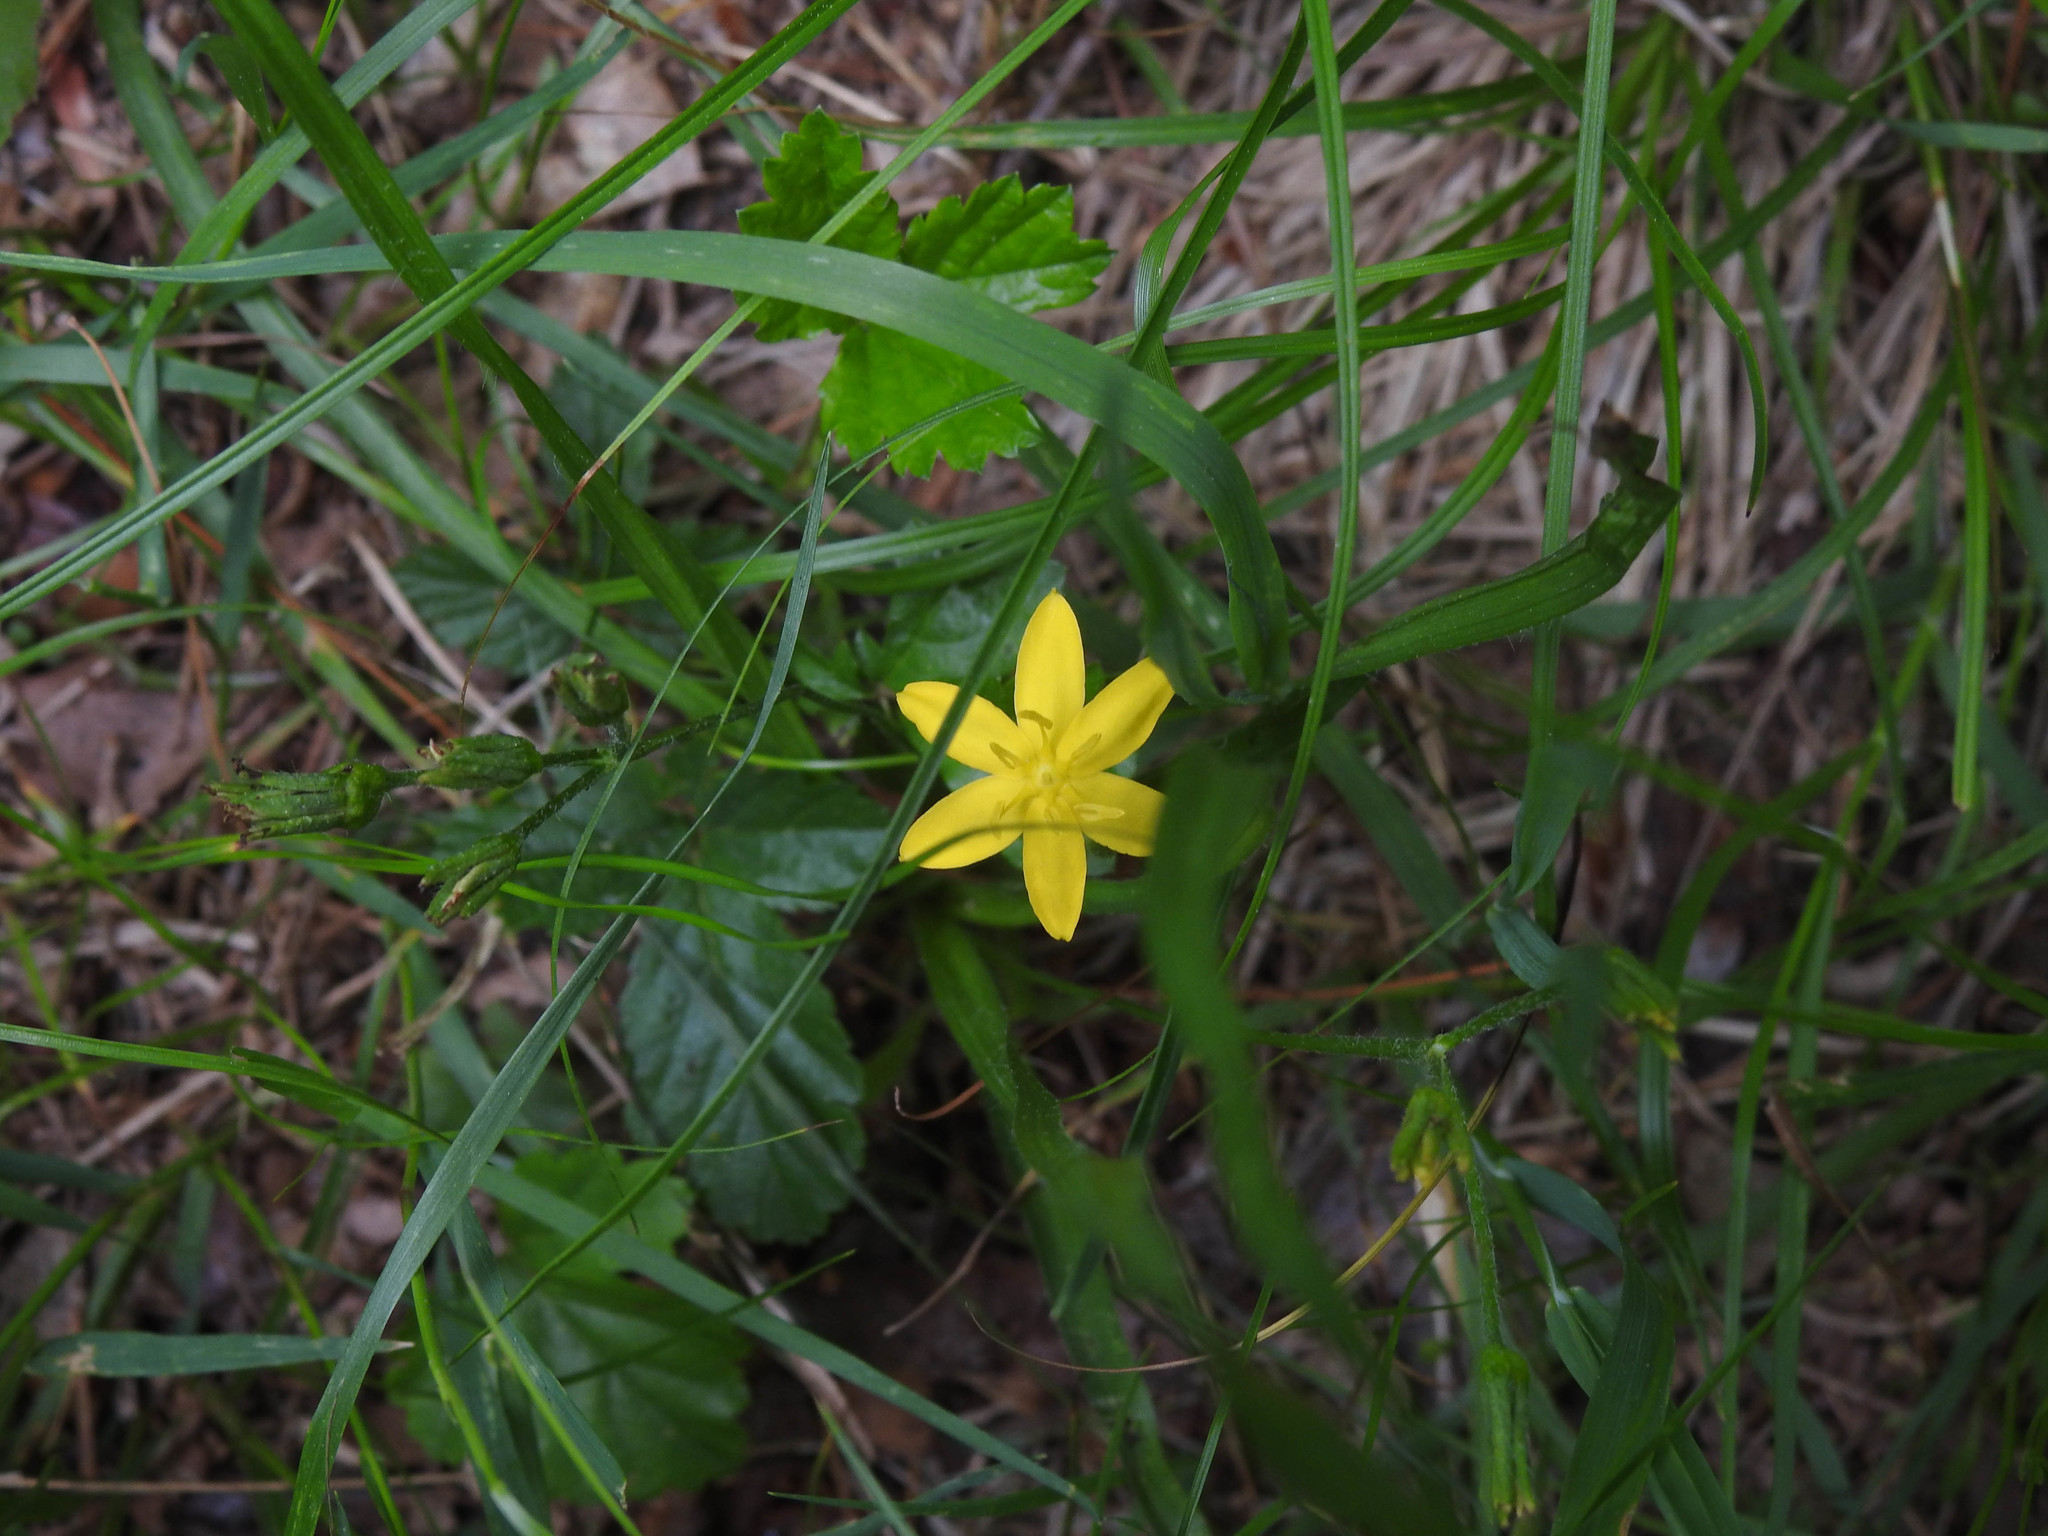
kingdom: Plantae
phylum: Tracheophyta
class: Liliopsida
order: Asparagales
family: Hypoxidaceae
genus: Hypoxis
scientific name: Hypoxis hirsuta
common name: Common goldstar
